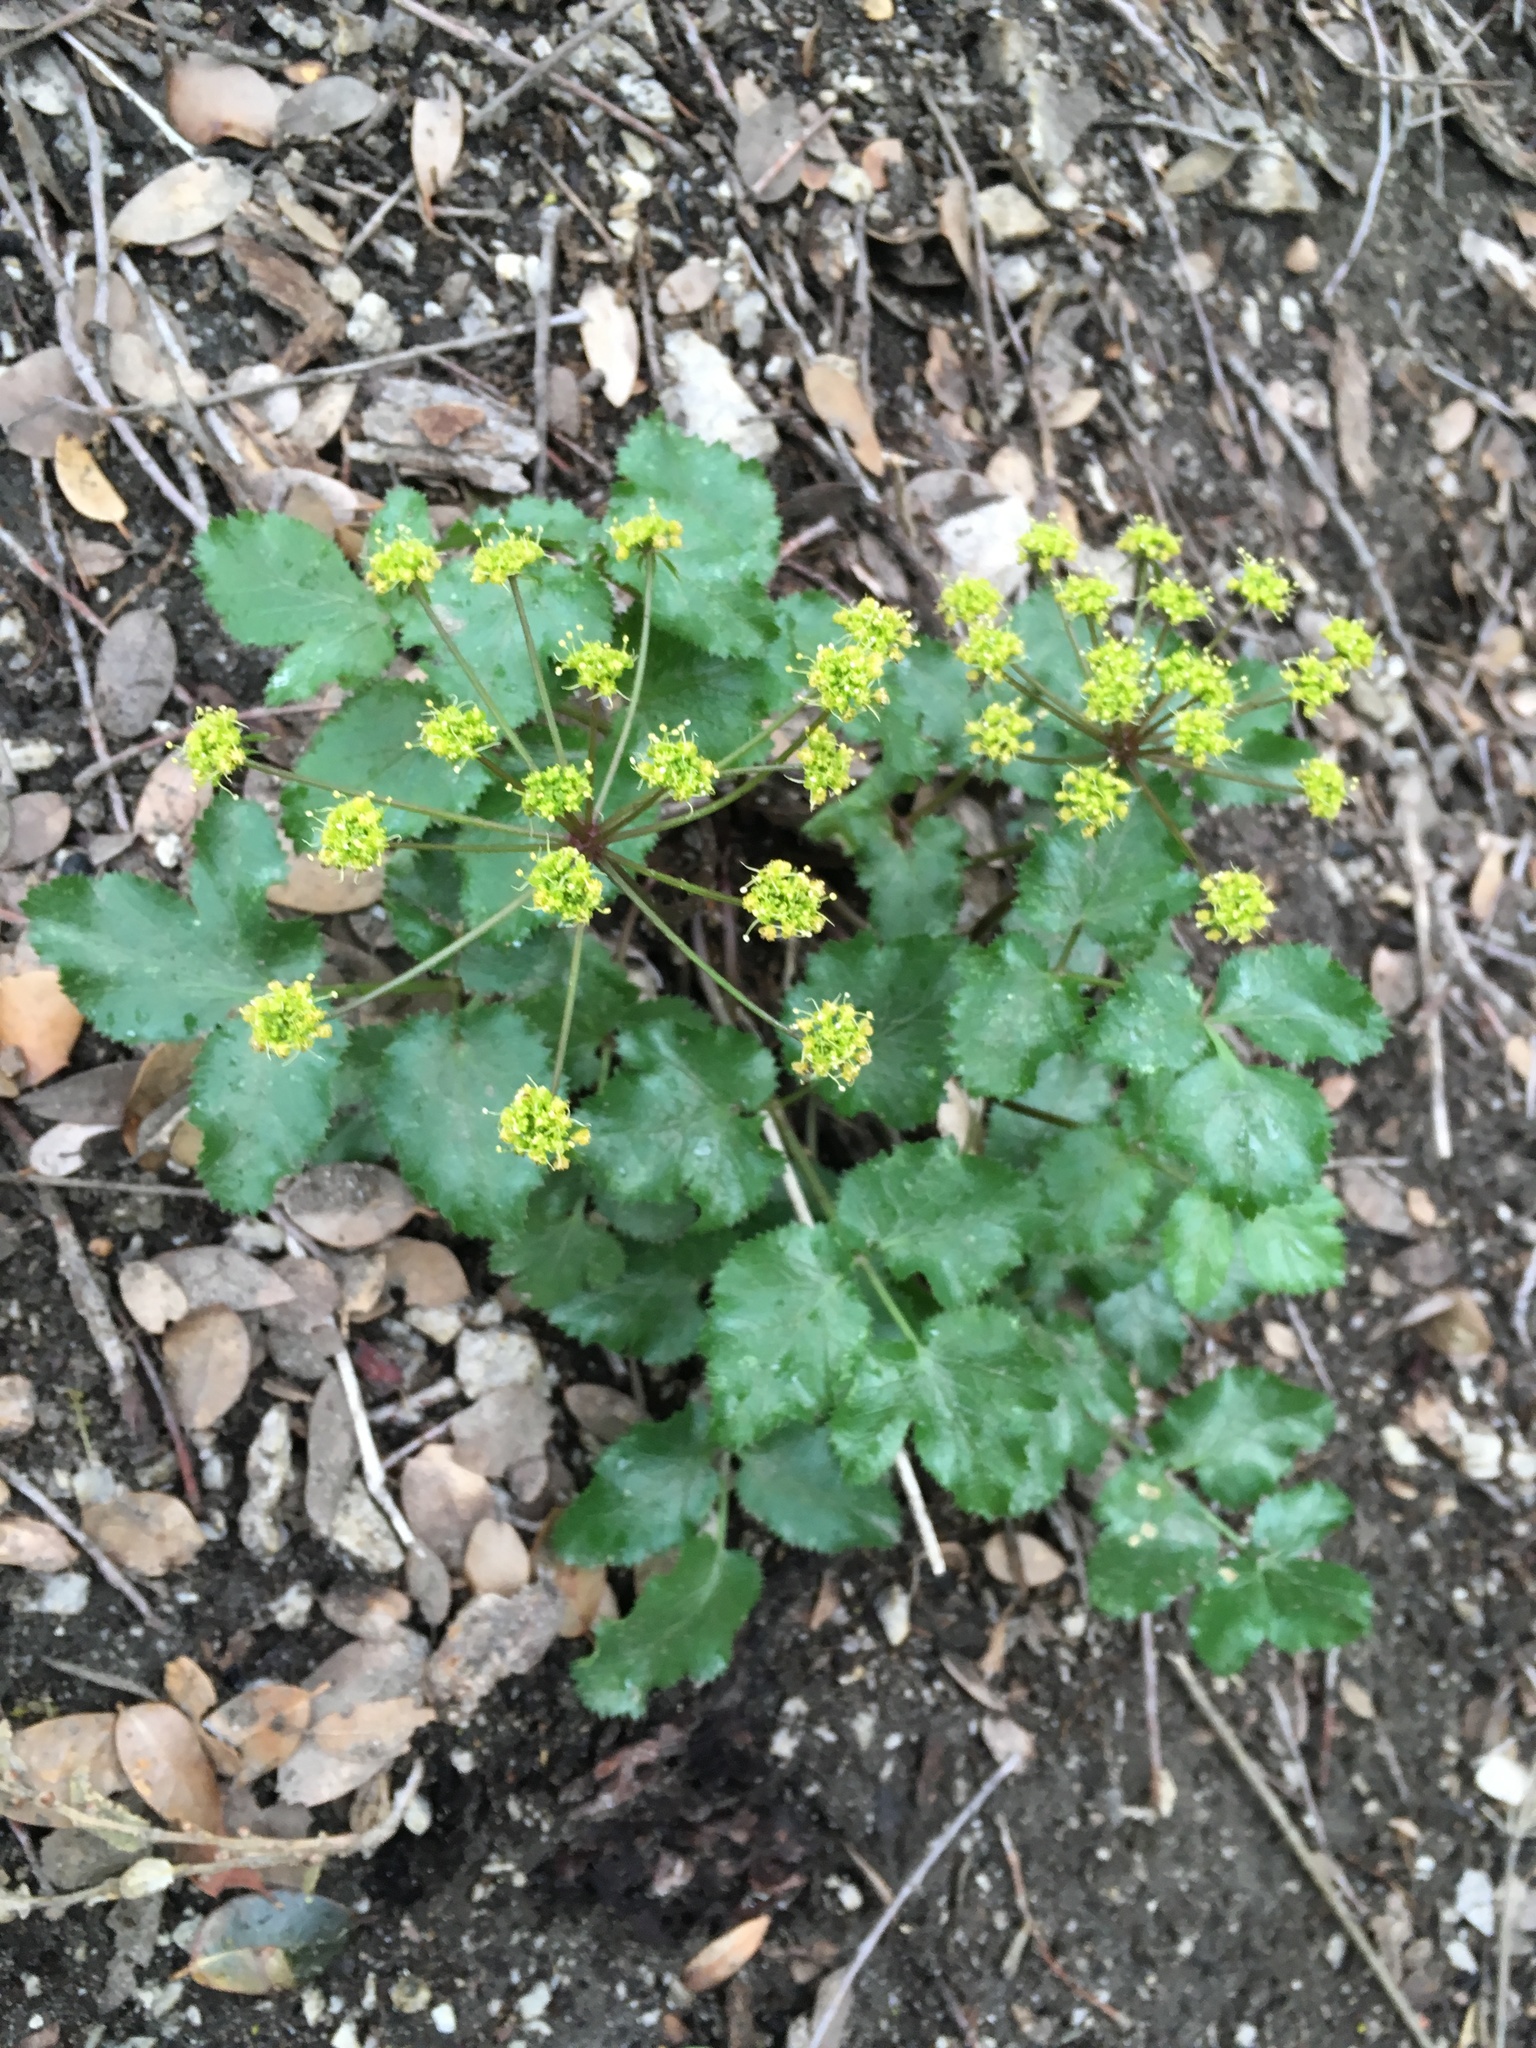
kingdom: Plantae
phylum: Tracheophyta
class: Magnoliopsida
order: Apiales
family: Apiaceae
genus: Tauschia
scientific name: Tauschia arguta
